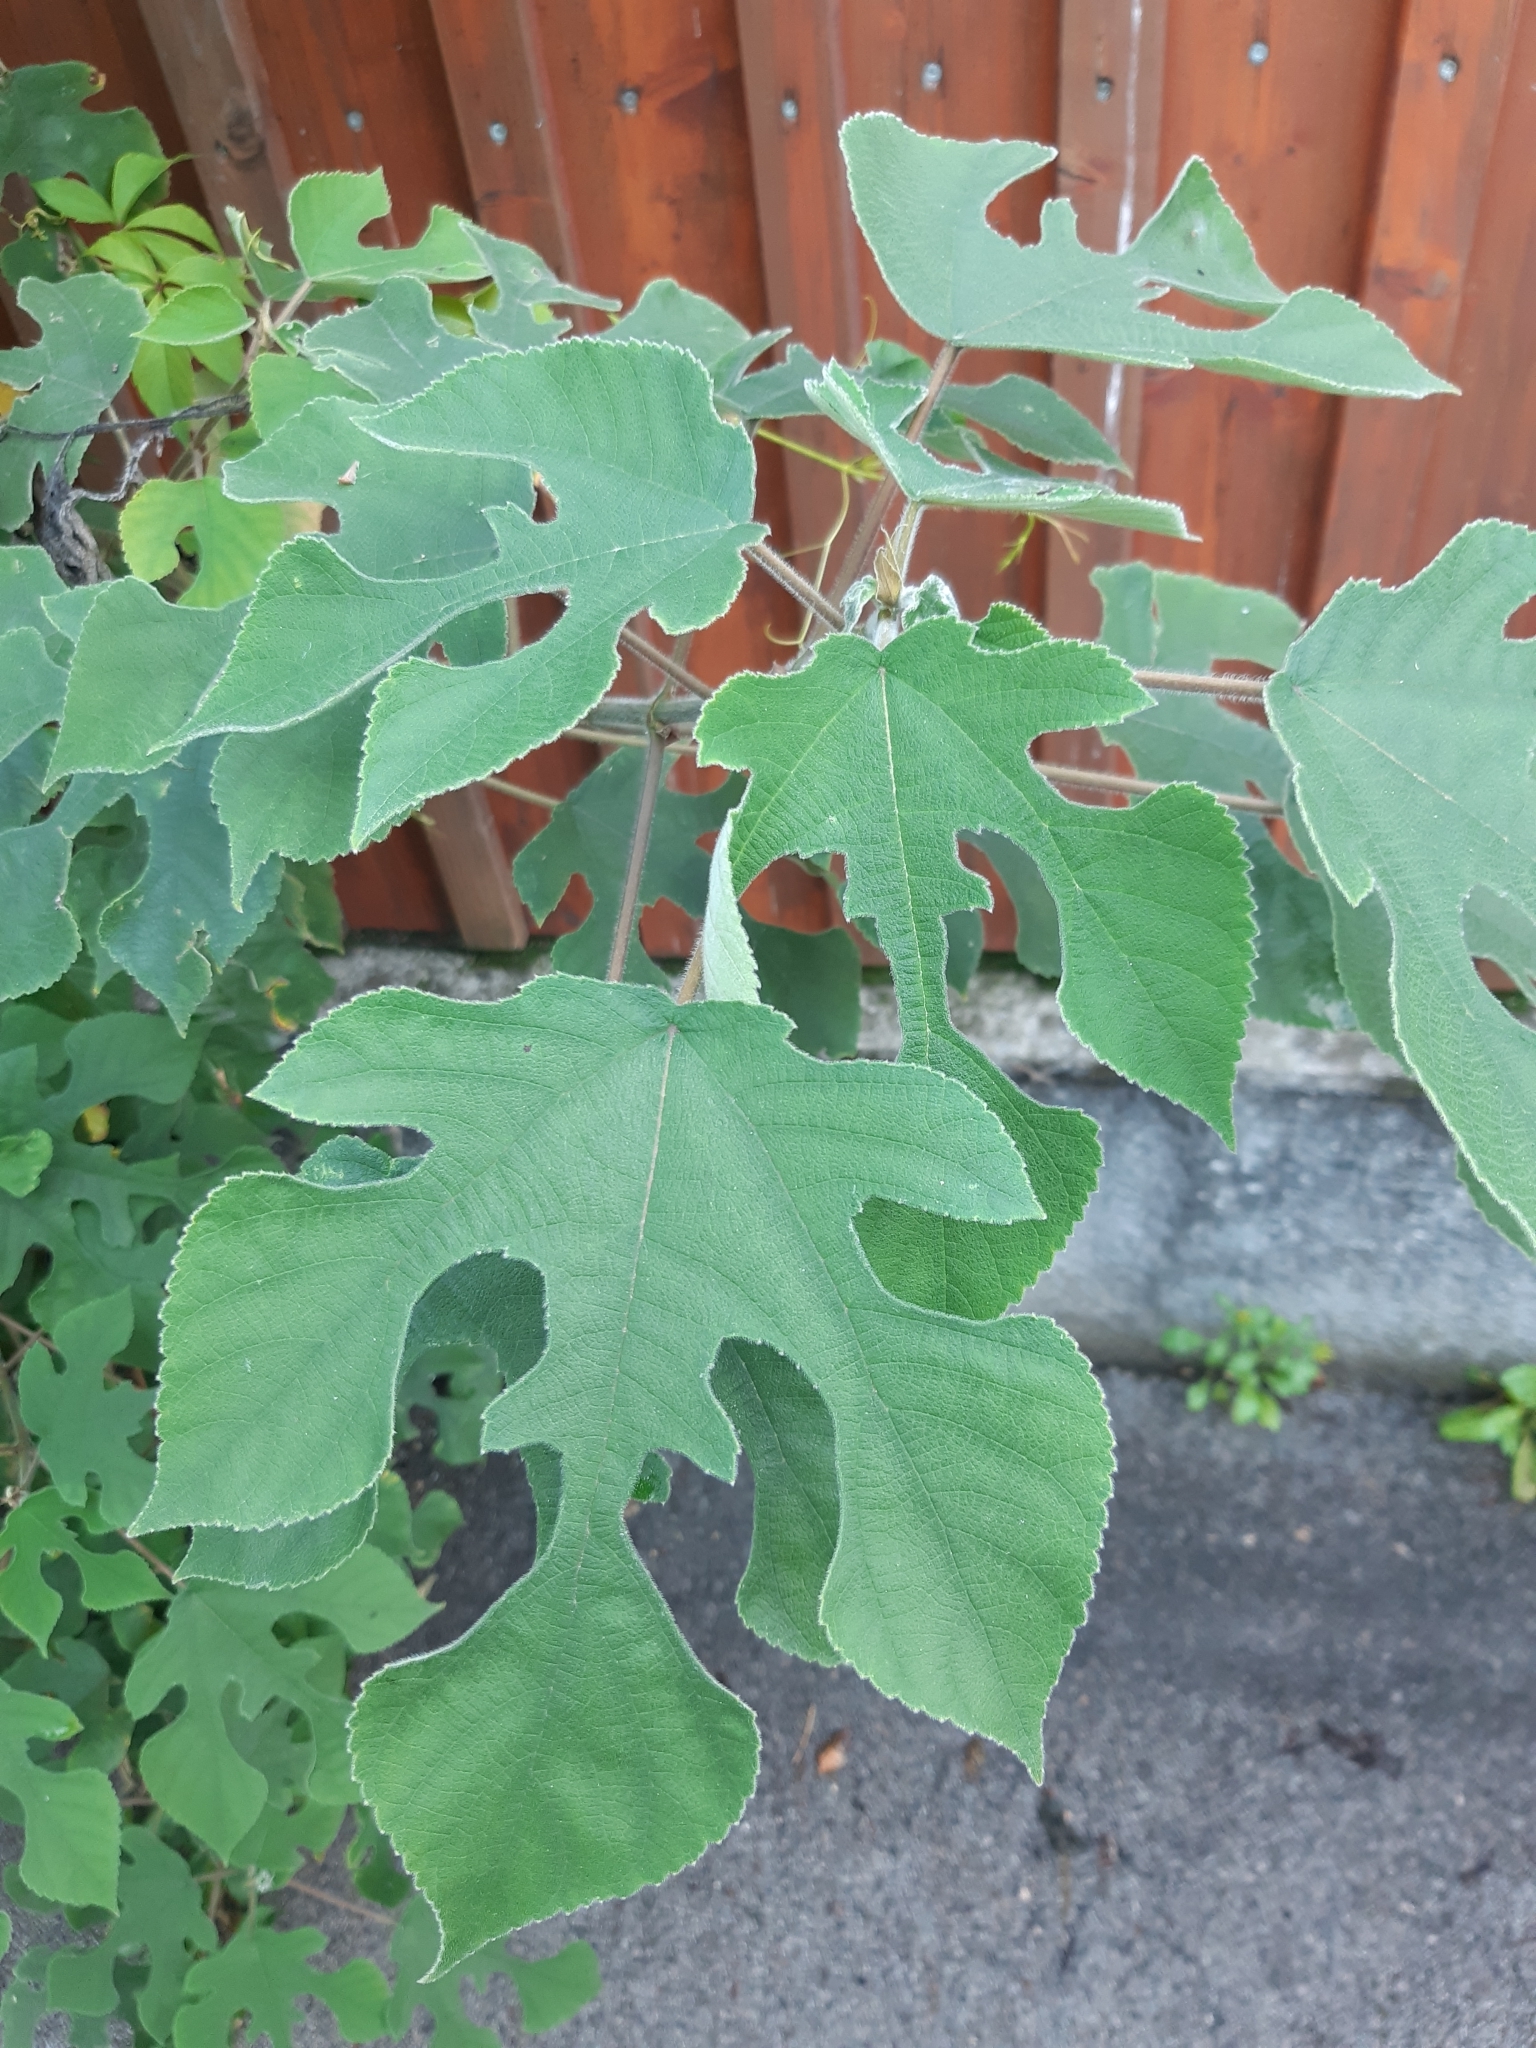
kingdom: Plantae
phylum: Tracheophyta
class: Magnoliopsida
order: Rosales
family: Moraceae
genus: Broussonetia
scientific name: Broussonetia papyrifera
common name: Paper mulberry
